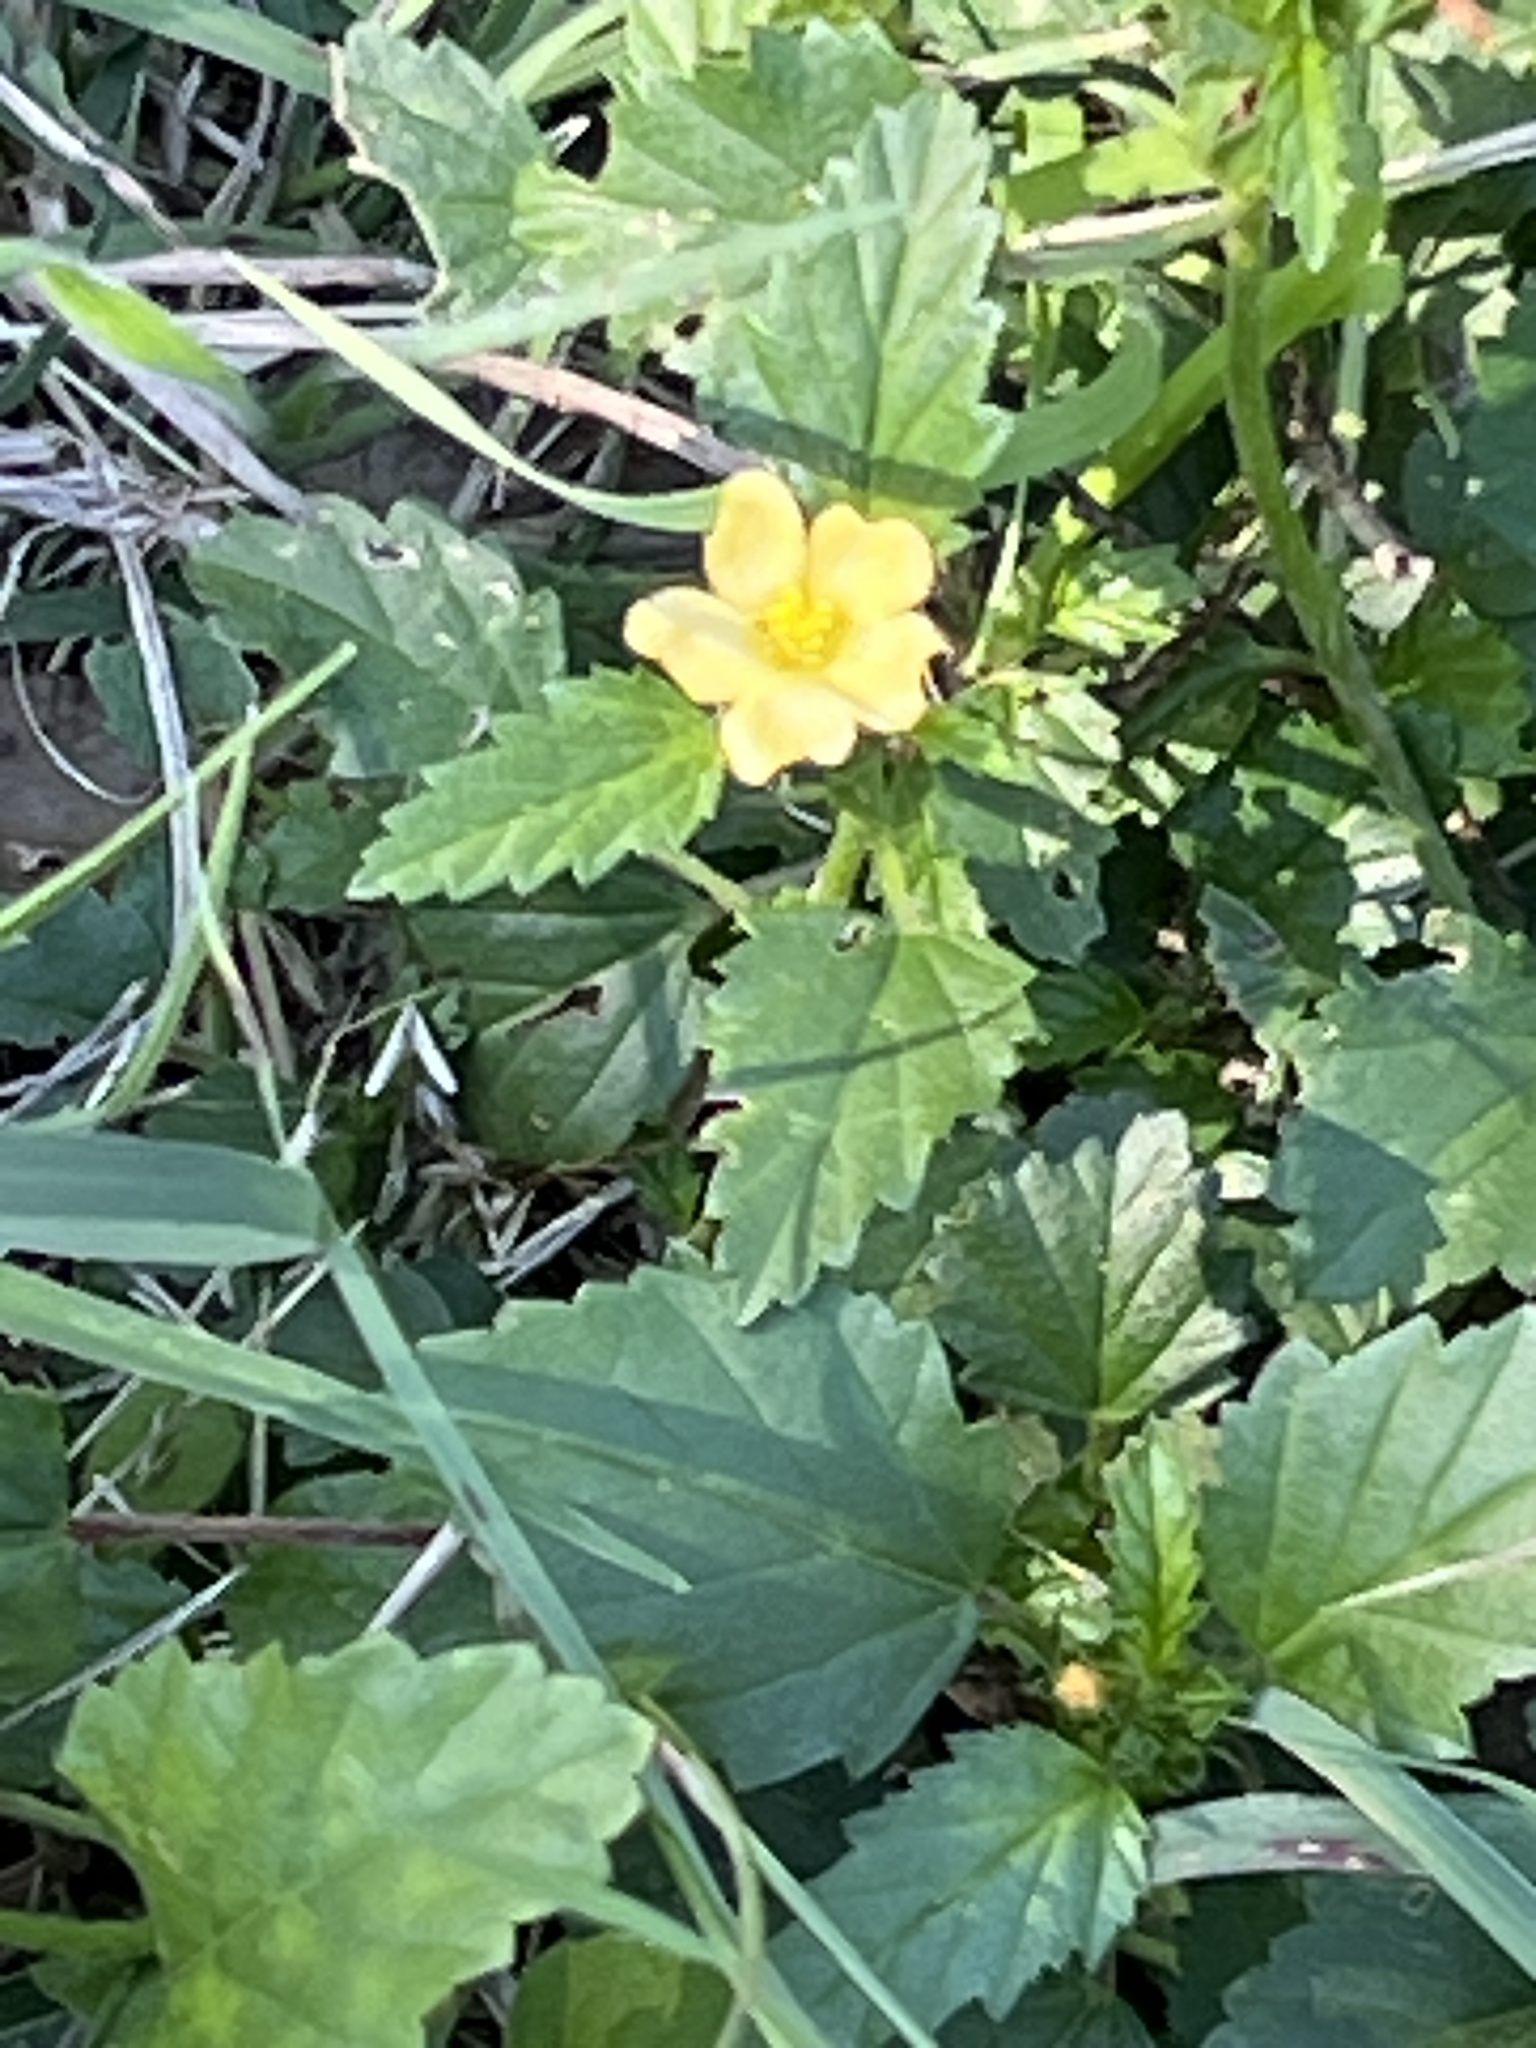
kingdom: Plantae
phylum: Tracheophyta
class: Magnoliopsida
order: Malvales
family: Malvaceae
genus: Malvastrum
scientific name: Malvastrum coromandelianum
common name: Threelobe false mallow
